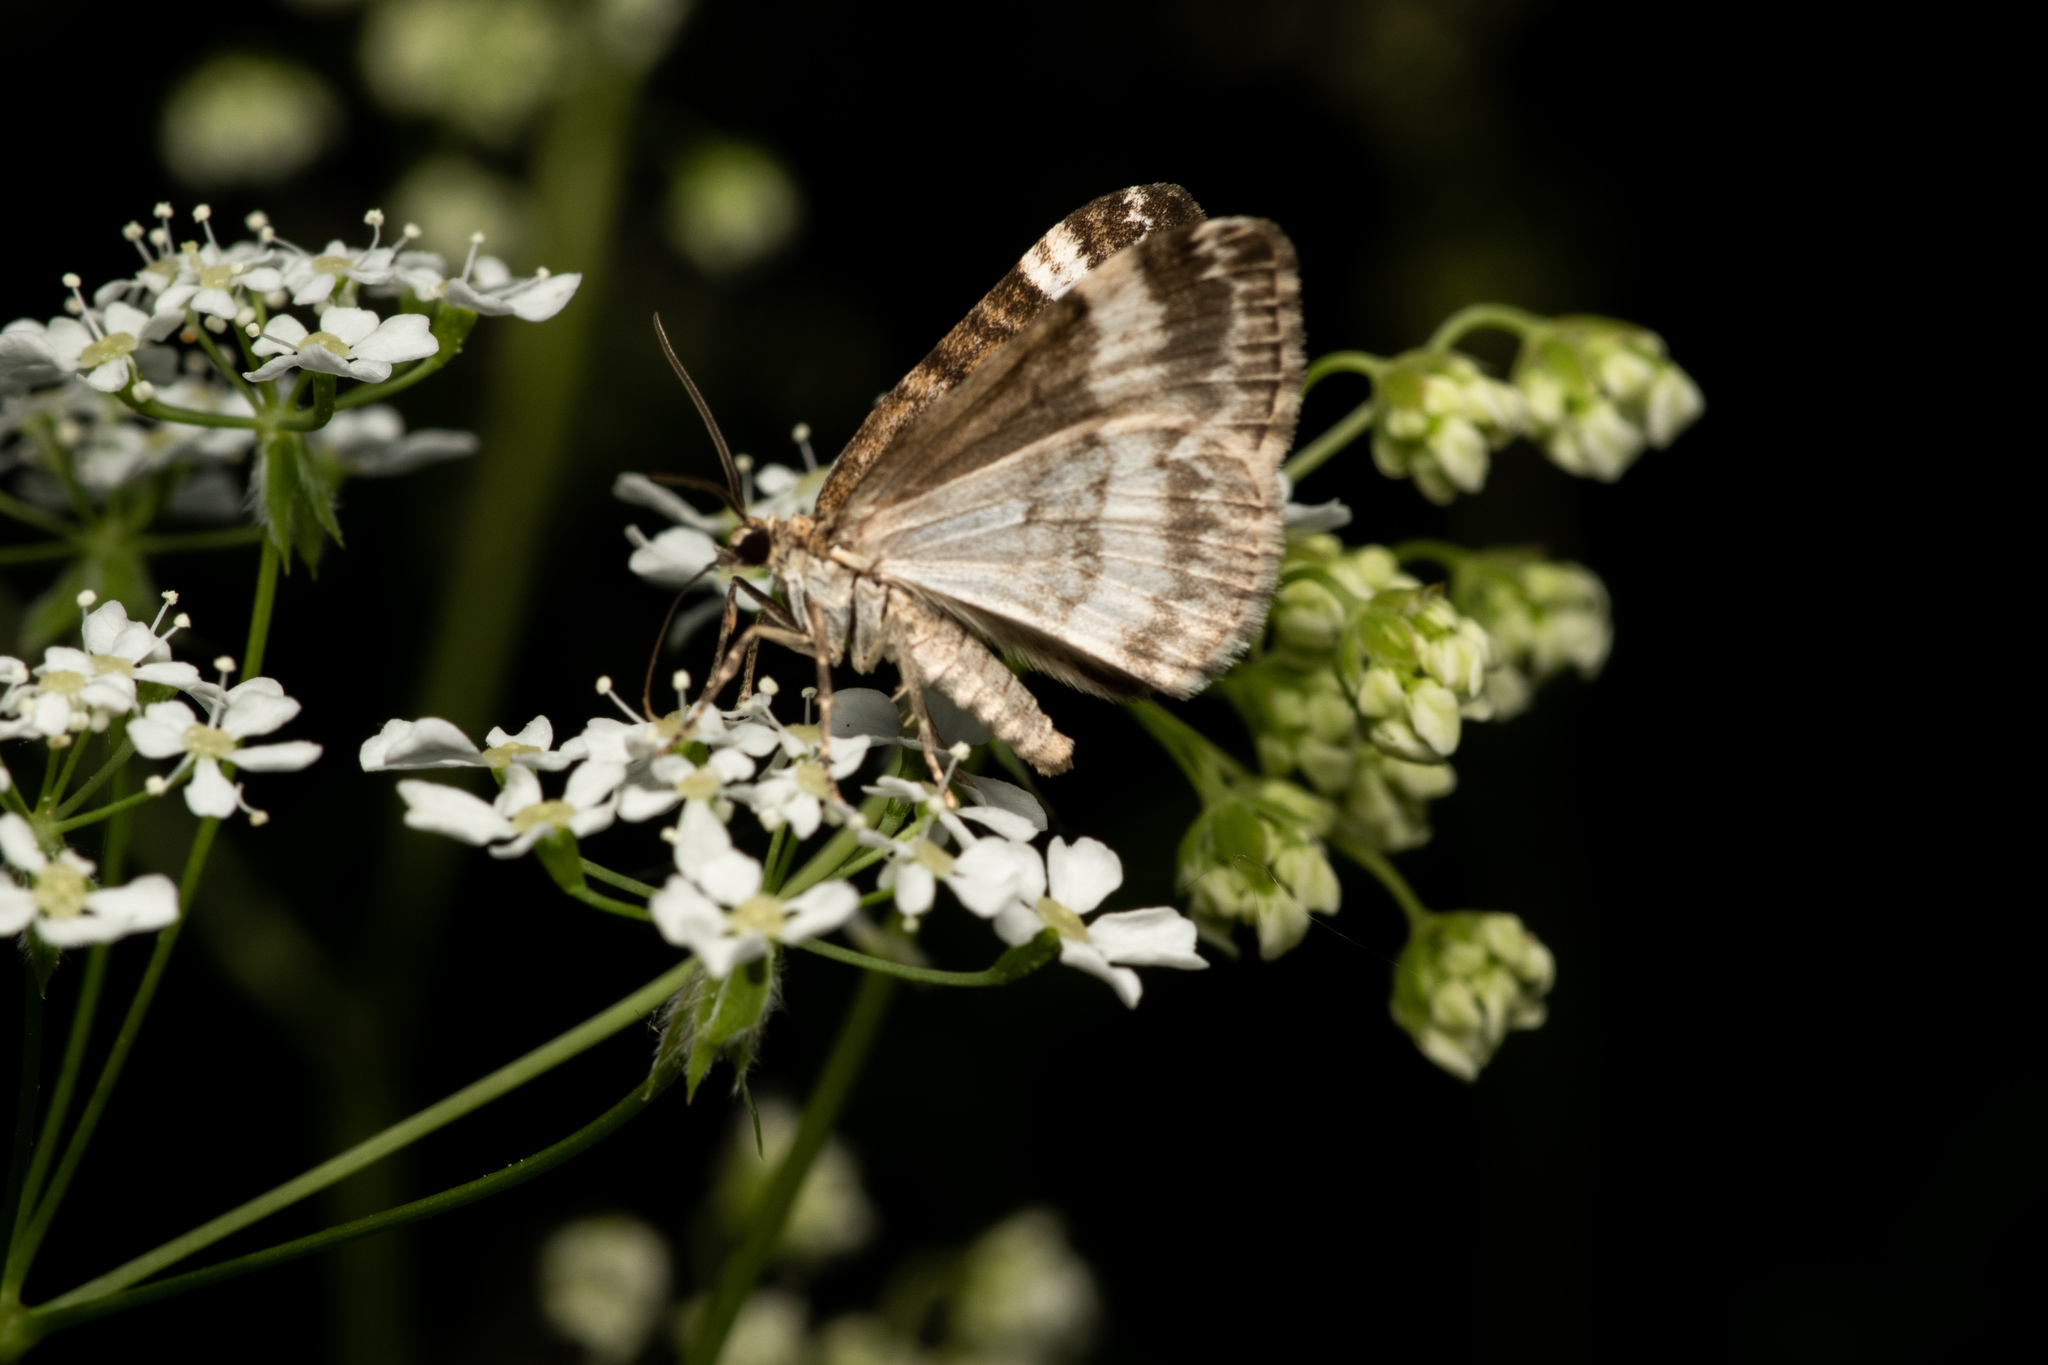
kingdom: Animalia
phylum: Arthropoda
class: Insecta
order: Lepidoptera
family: Geometridae
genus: Perizoma
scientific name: Perizoma affinitata
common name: Rivulet
